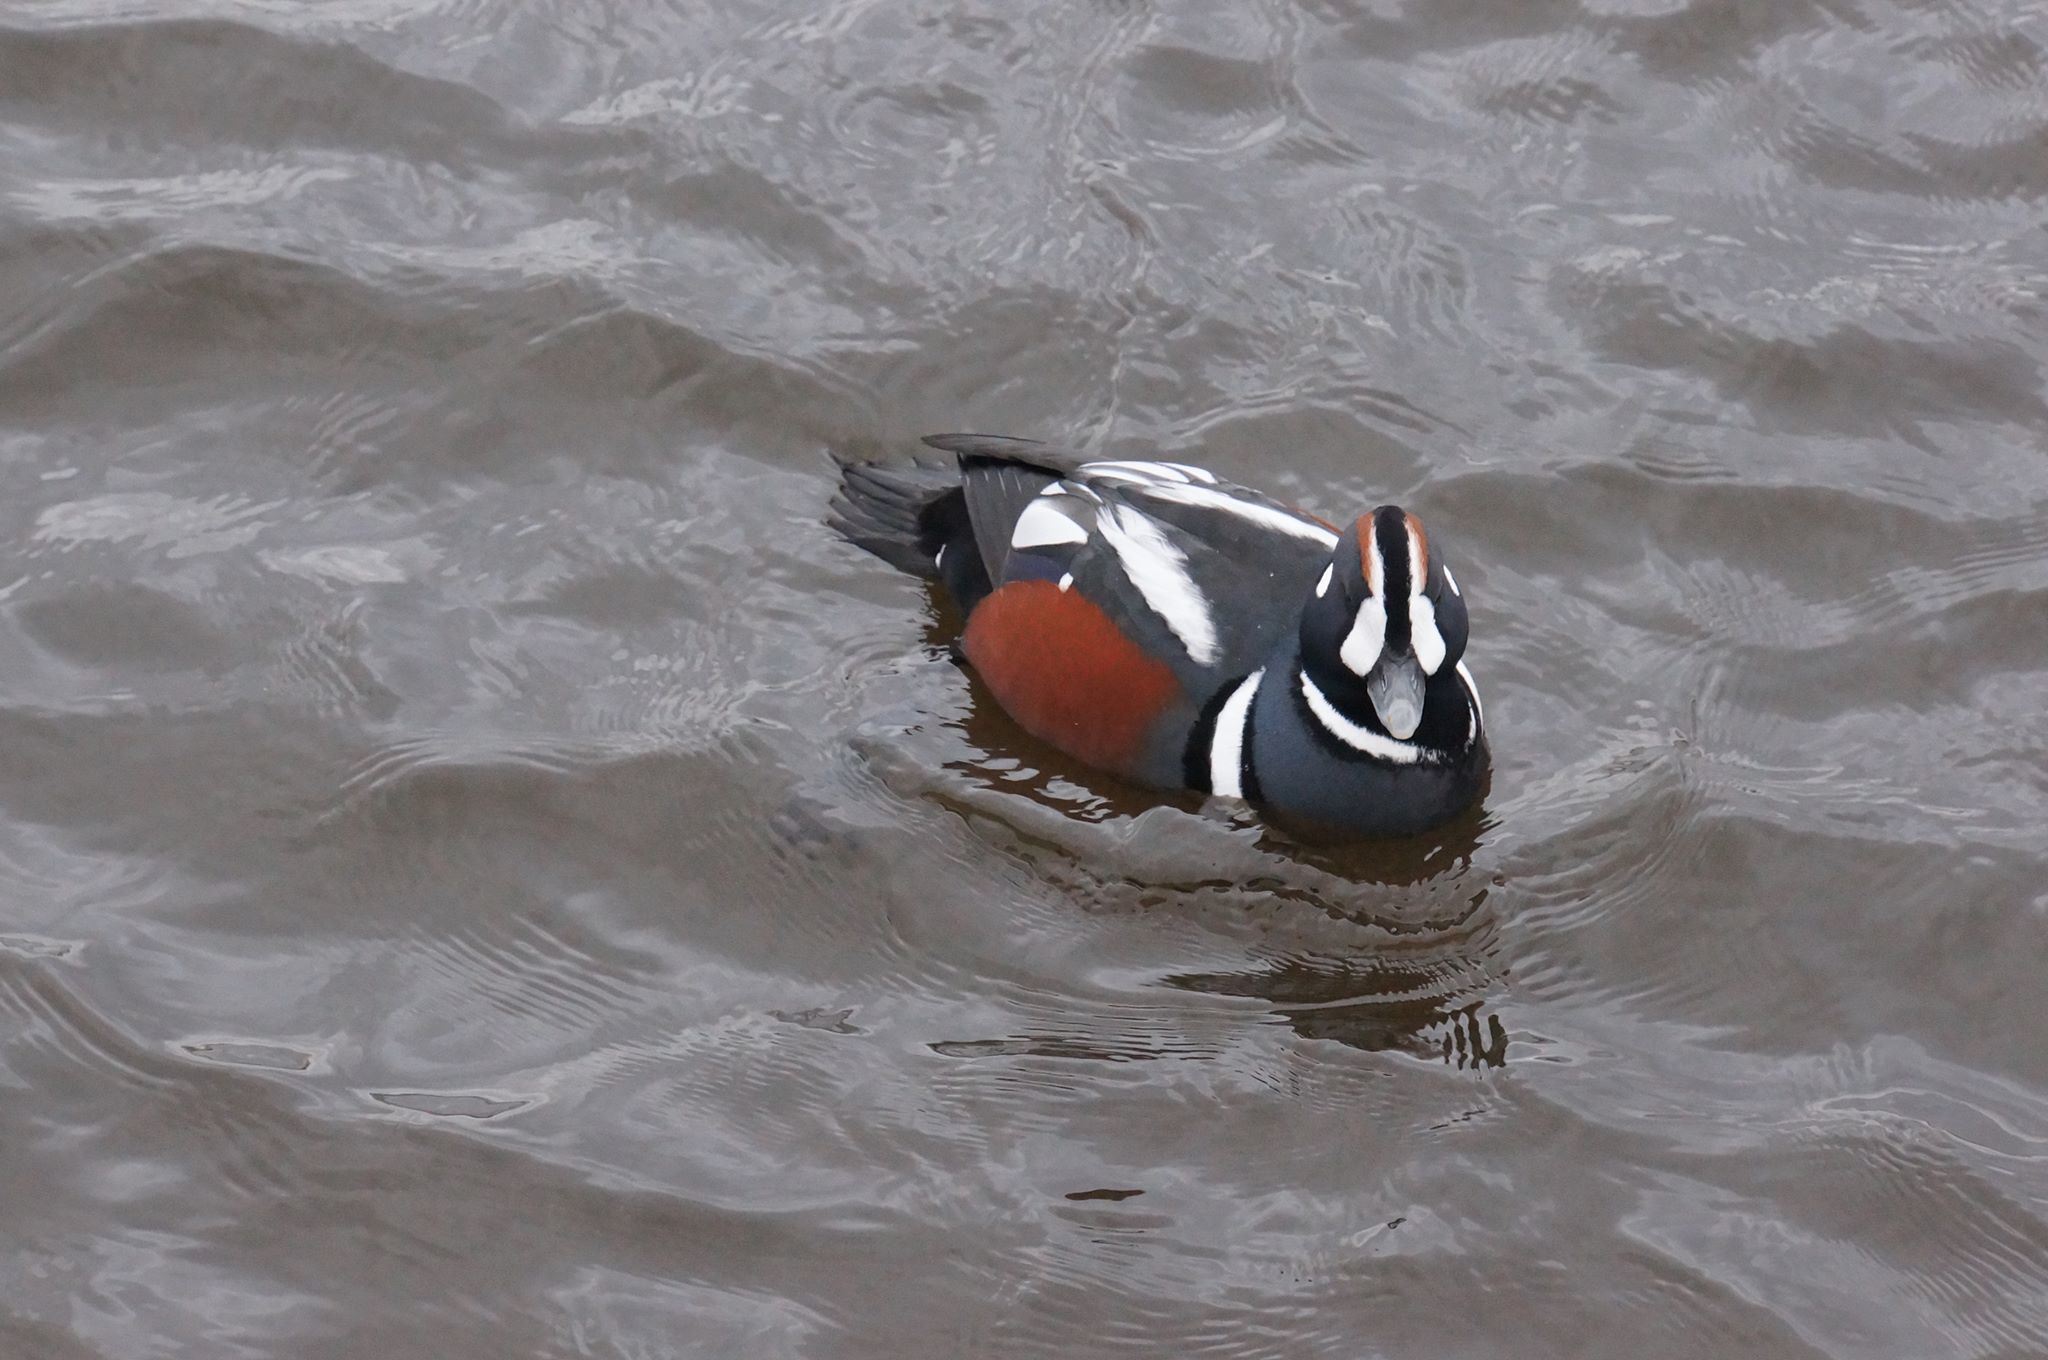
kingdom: Animalia
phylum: Chordata
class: Aves
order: Anseriformes
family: Anatidae
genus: Histrionicus
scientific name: Histrionicus histrionicus
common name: Harlequin duck
